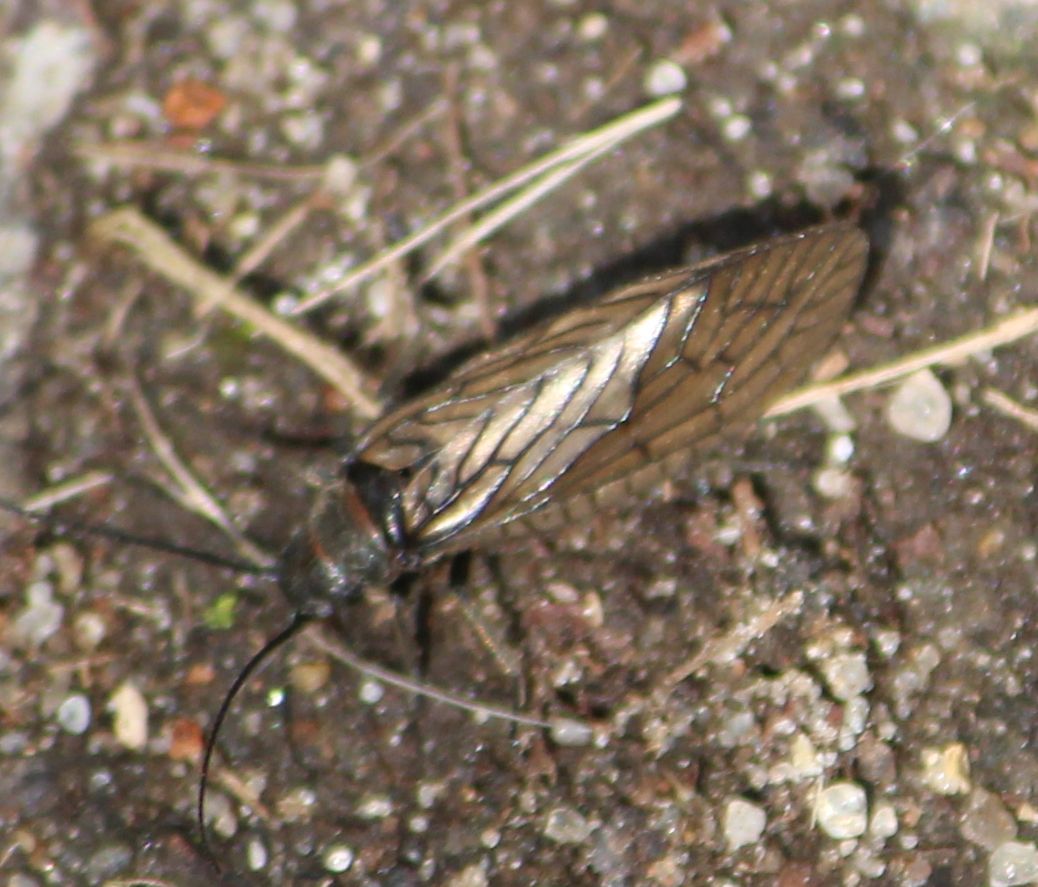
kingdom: Animalia
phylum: Arthropoda
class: Insecta
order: Megaloptera
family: Sialidae
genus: Sialis
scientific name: Sialis
